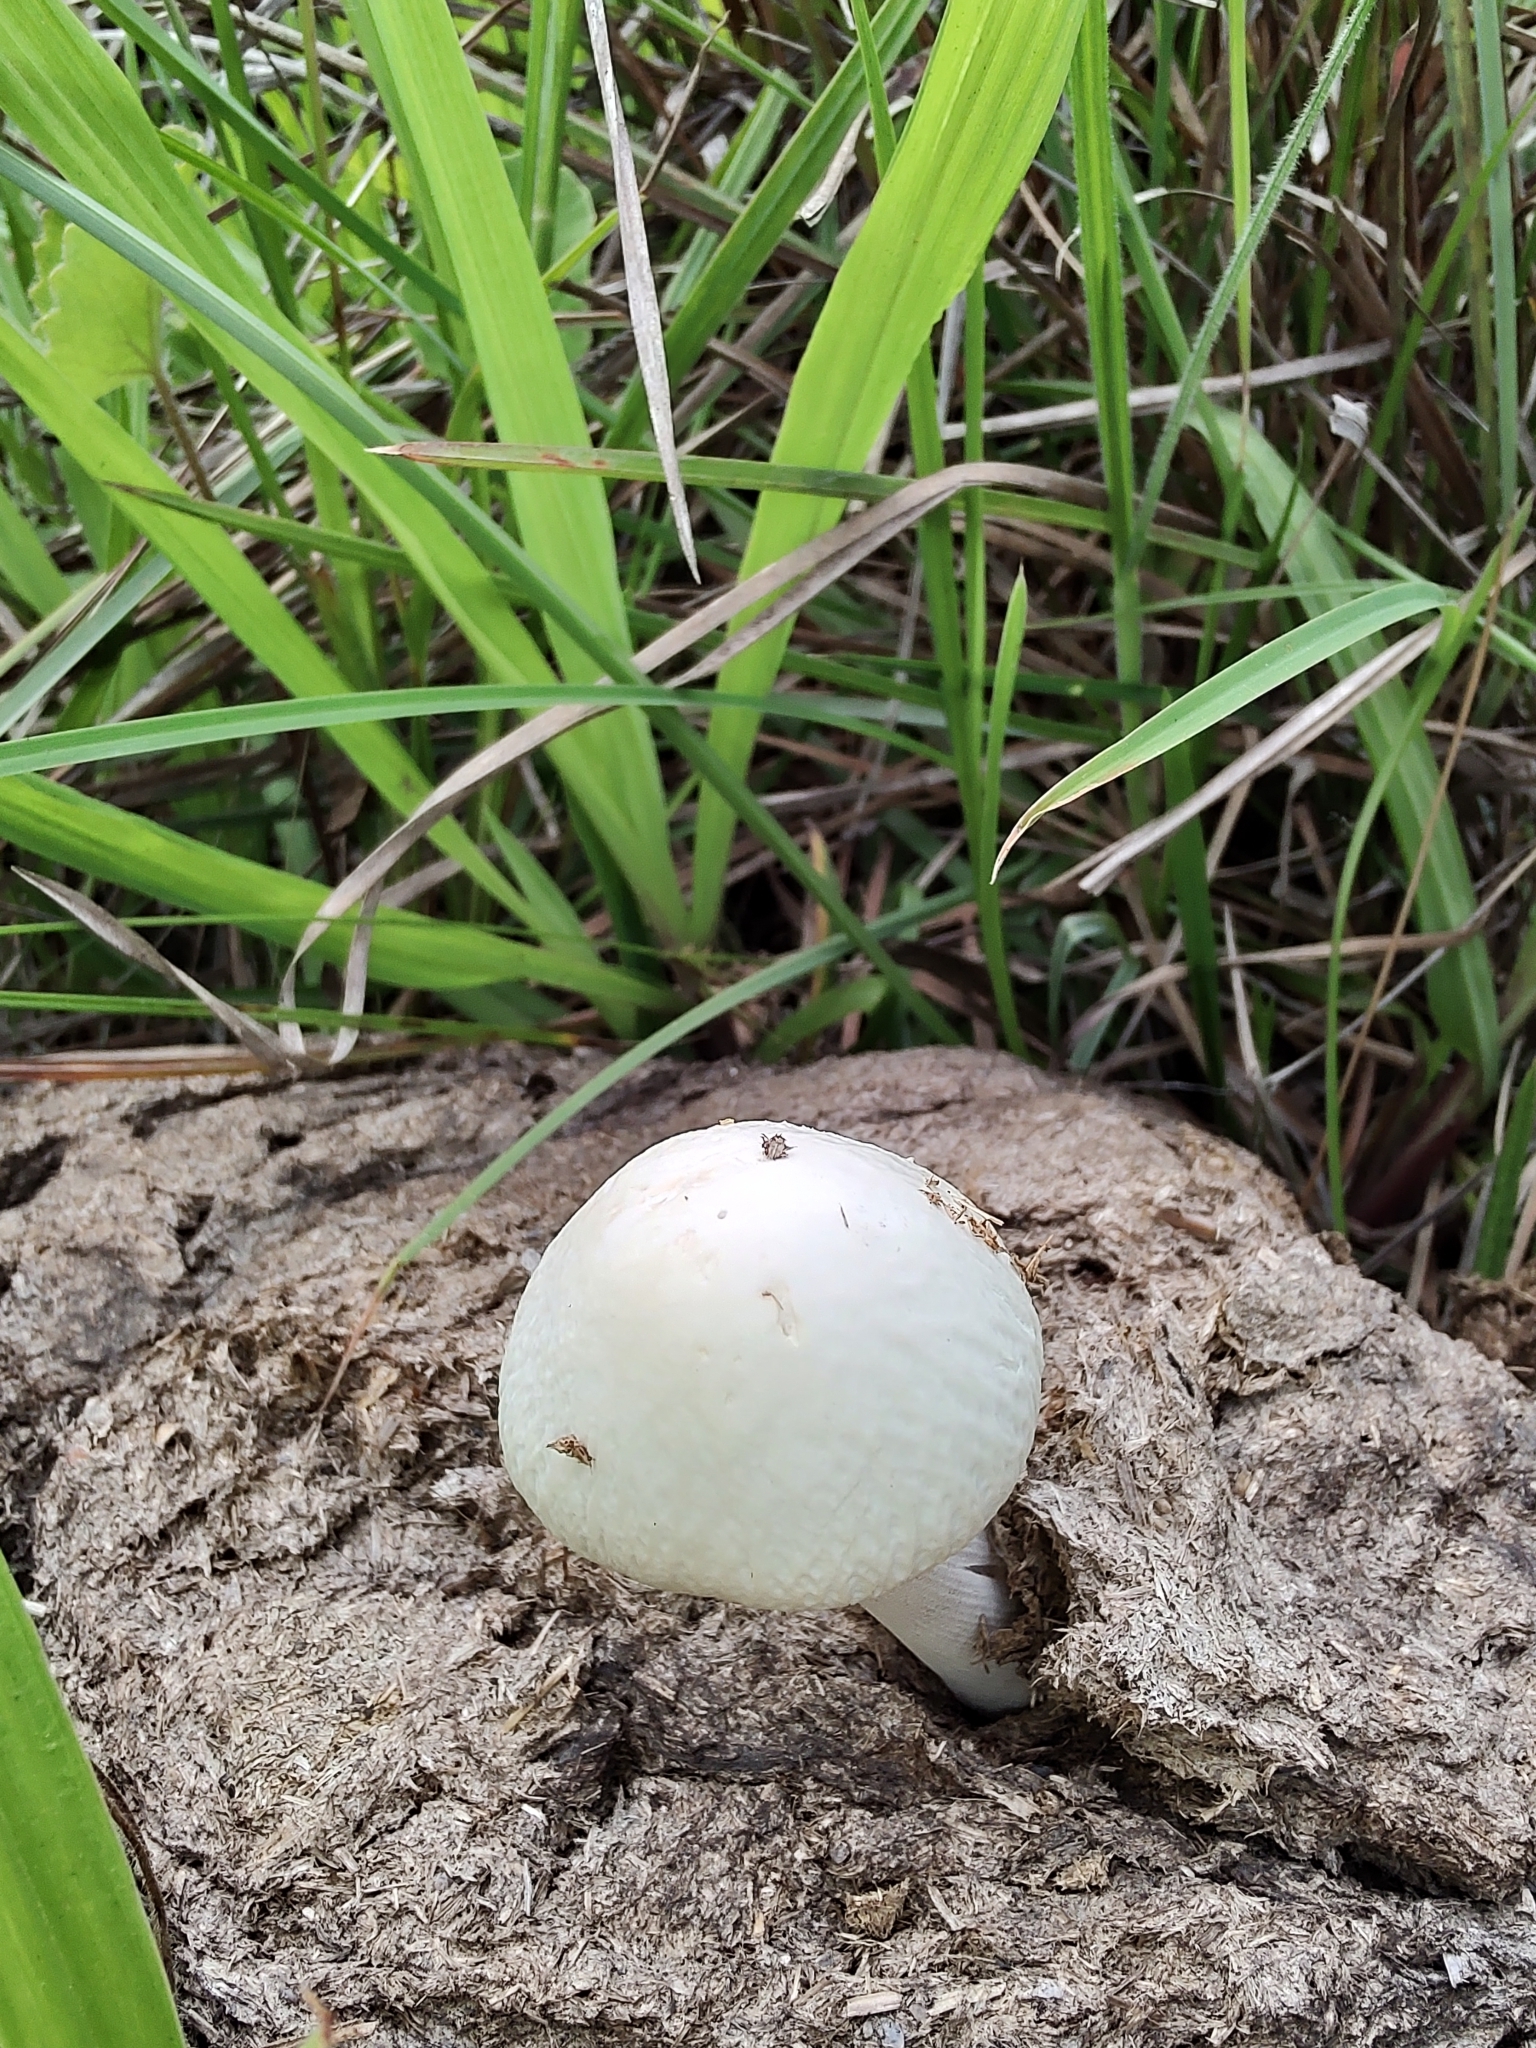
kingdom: Fungi
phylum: Basidiomycota
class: Agaricomycetes
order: Agaricales
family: Bolbitiaceae
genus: Panaeolus
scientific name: Panaeolus antillarum
